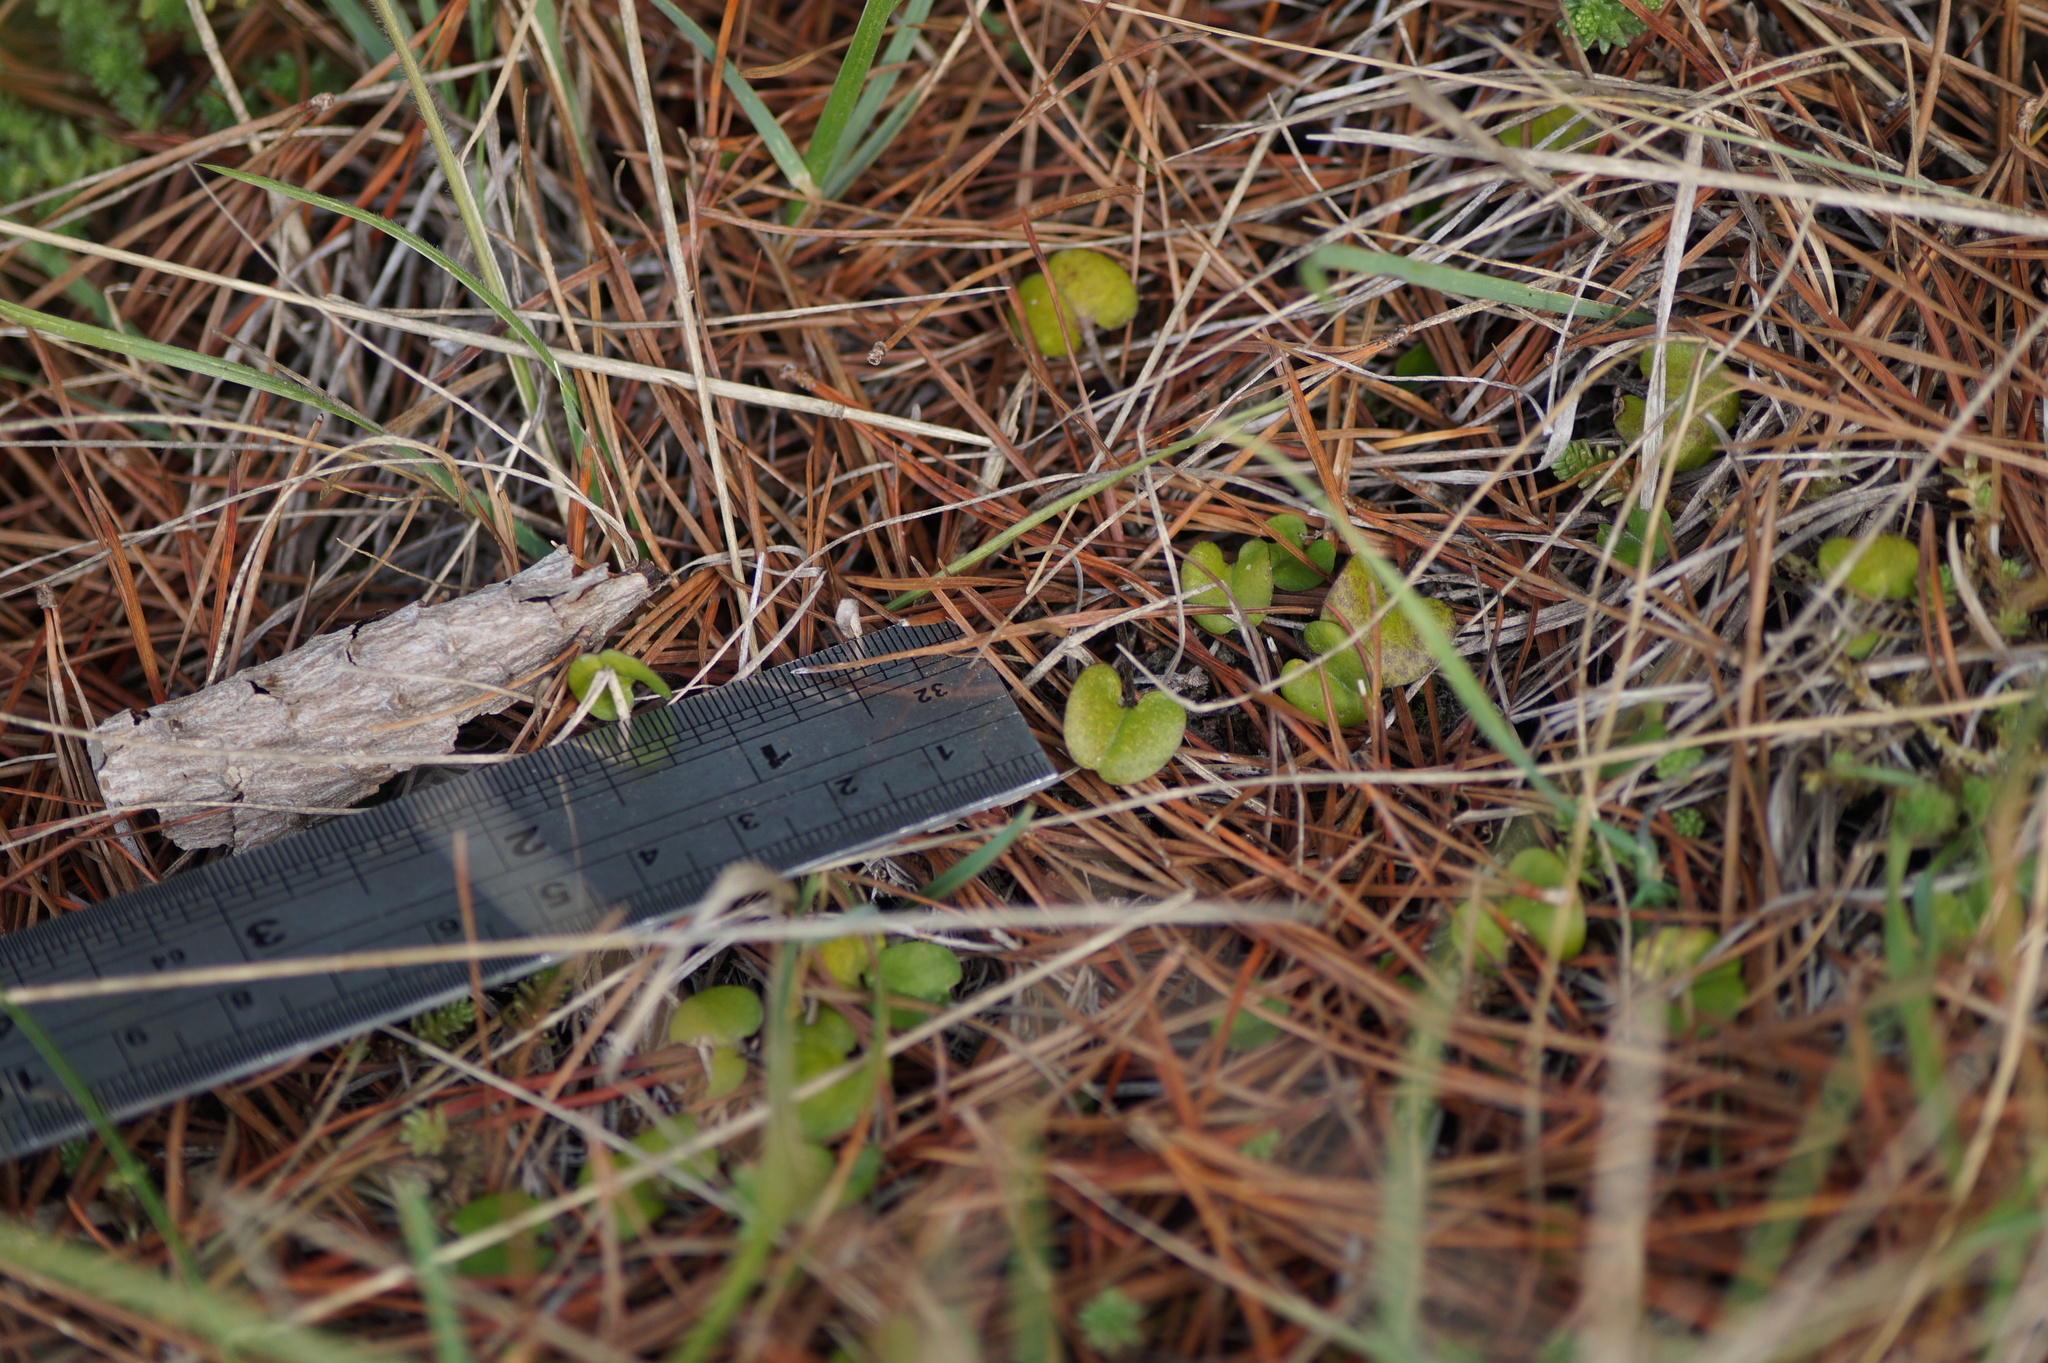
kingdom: Plantae
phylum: Tracheophyta
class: Magnoliopsida
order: Solanales
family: Convolvulaceae
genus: Dichondra
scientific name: Dichondra repens
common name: Kidneyweed
